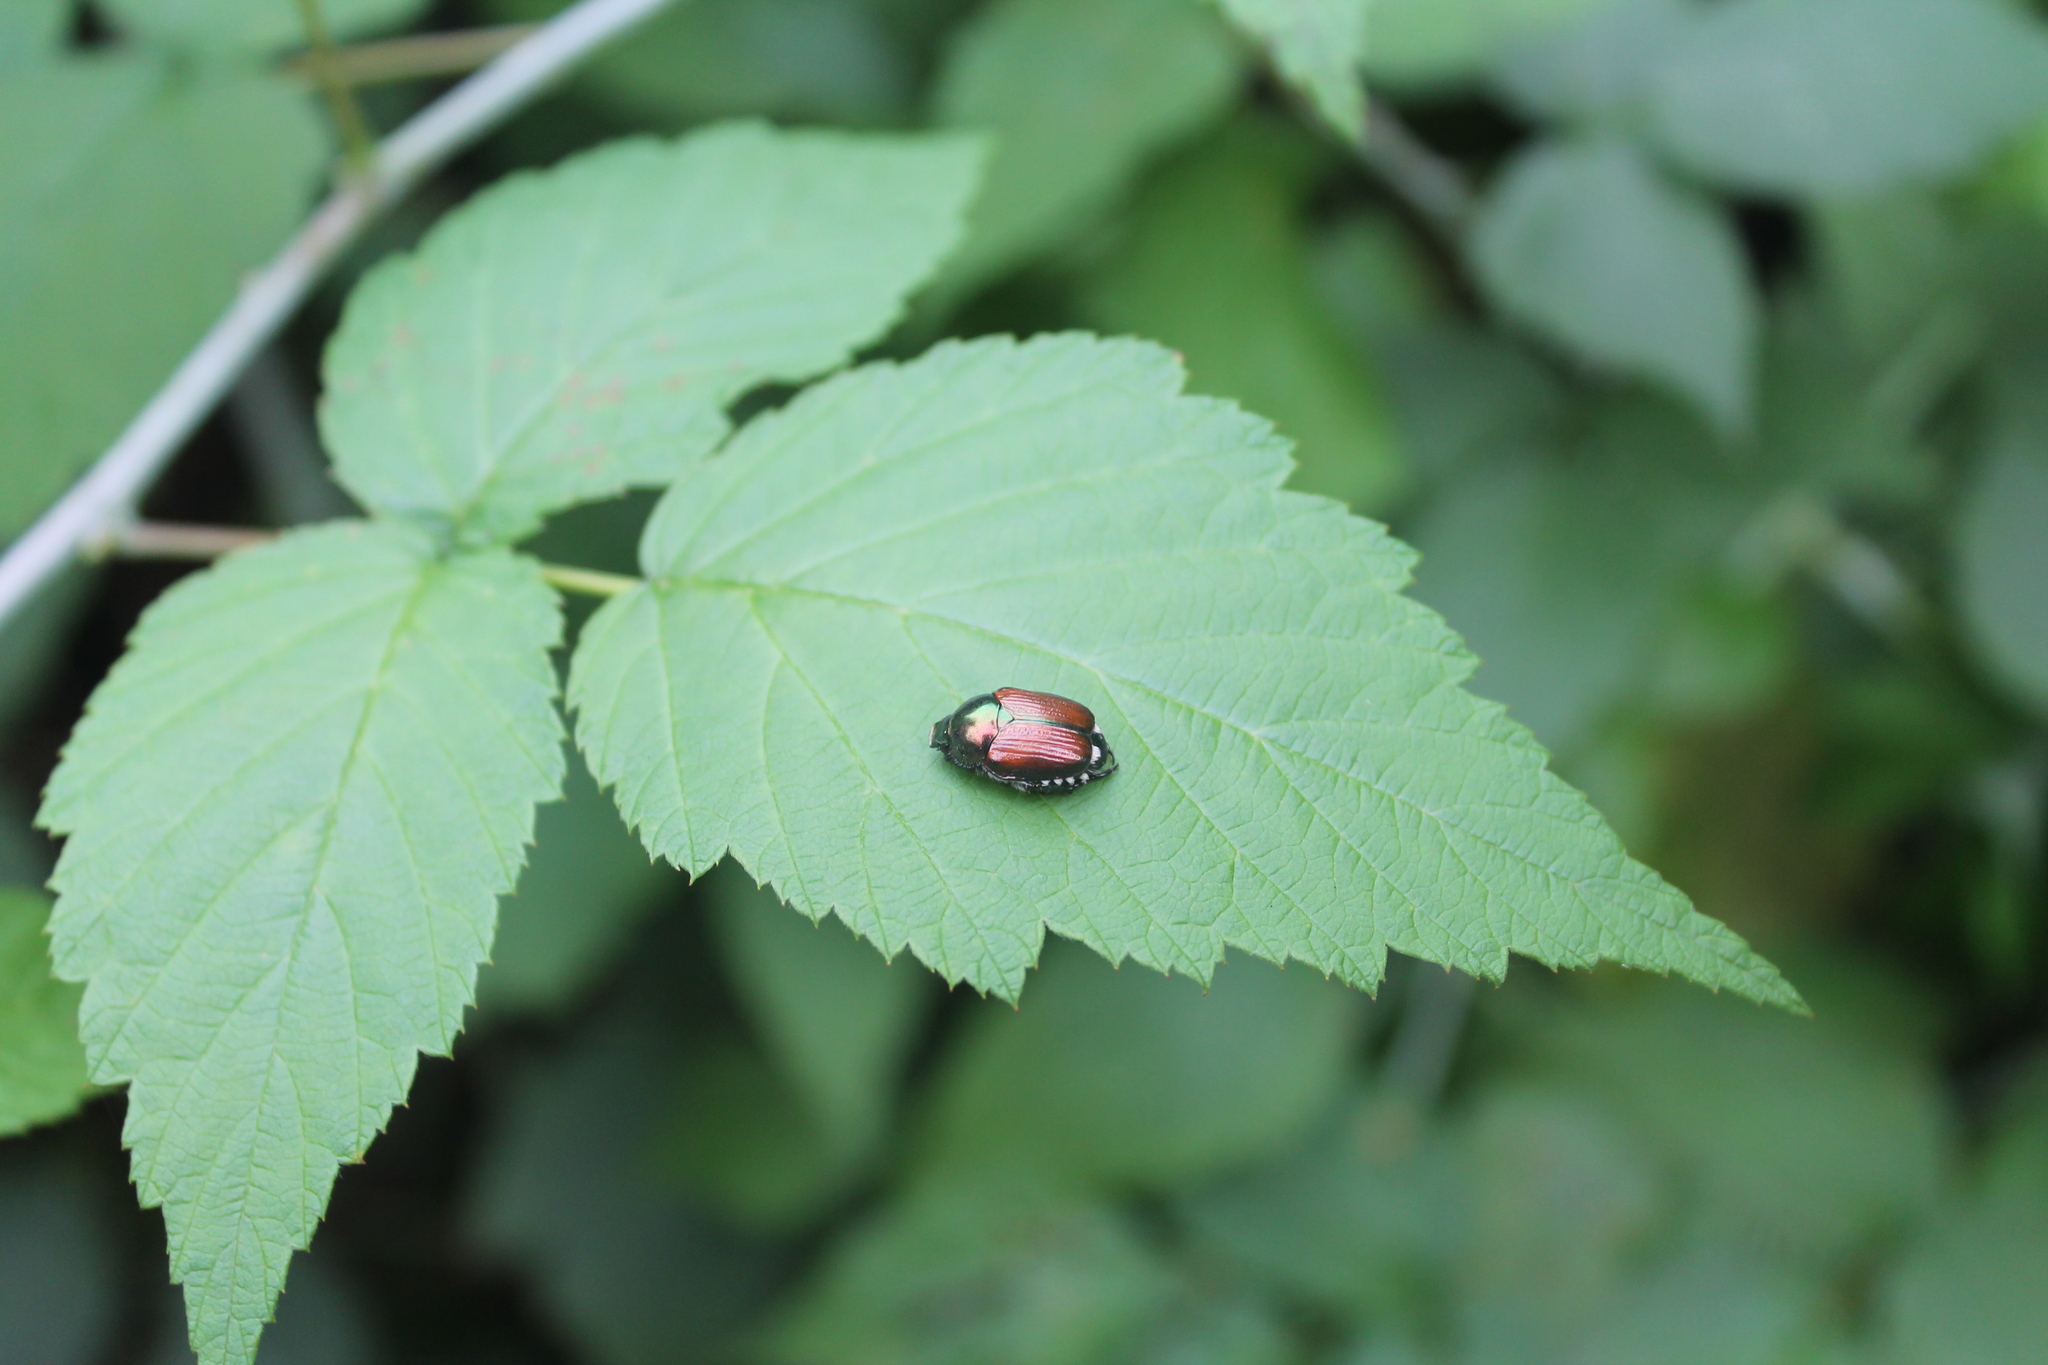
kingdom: Animalia
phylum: Arthropoda
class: Insecta
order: Coleoptera
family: Scarabaeidae
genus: Popillia
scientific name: Popillia japonica
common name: Japanese beetle
